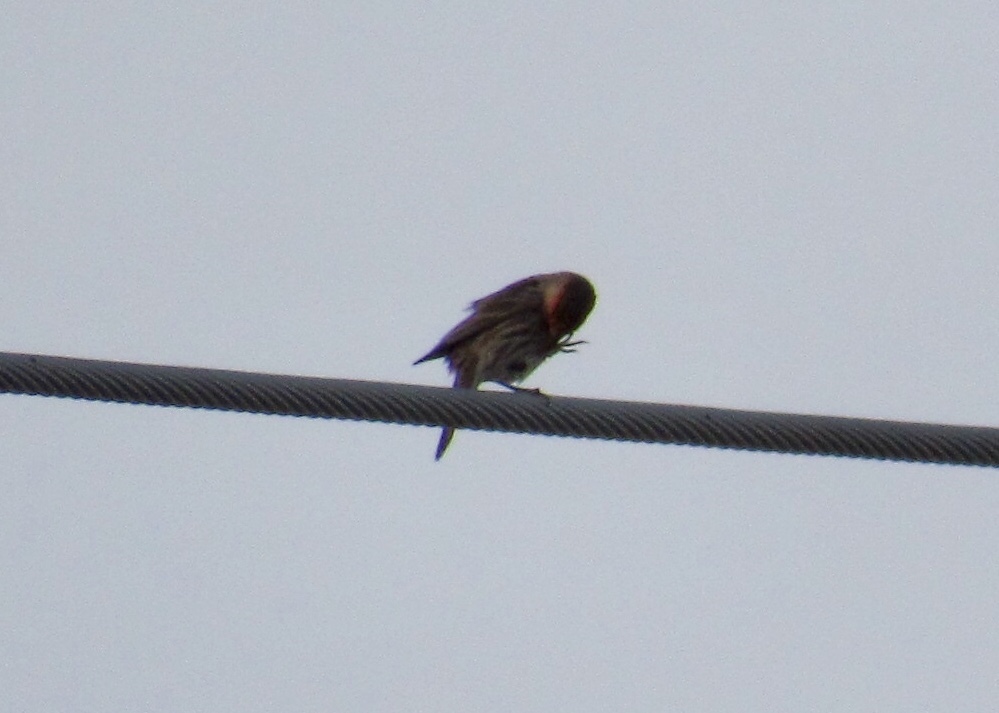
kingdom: Animalia
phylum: Chordata
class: Aves
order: Passeriformes
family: Fringillidae
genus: Haemorhous
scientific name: Haemorhous mexicanus
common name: House finch
